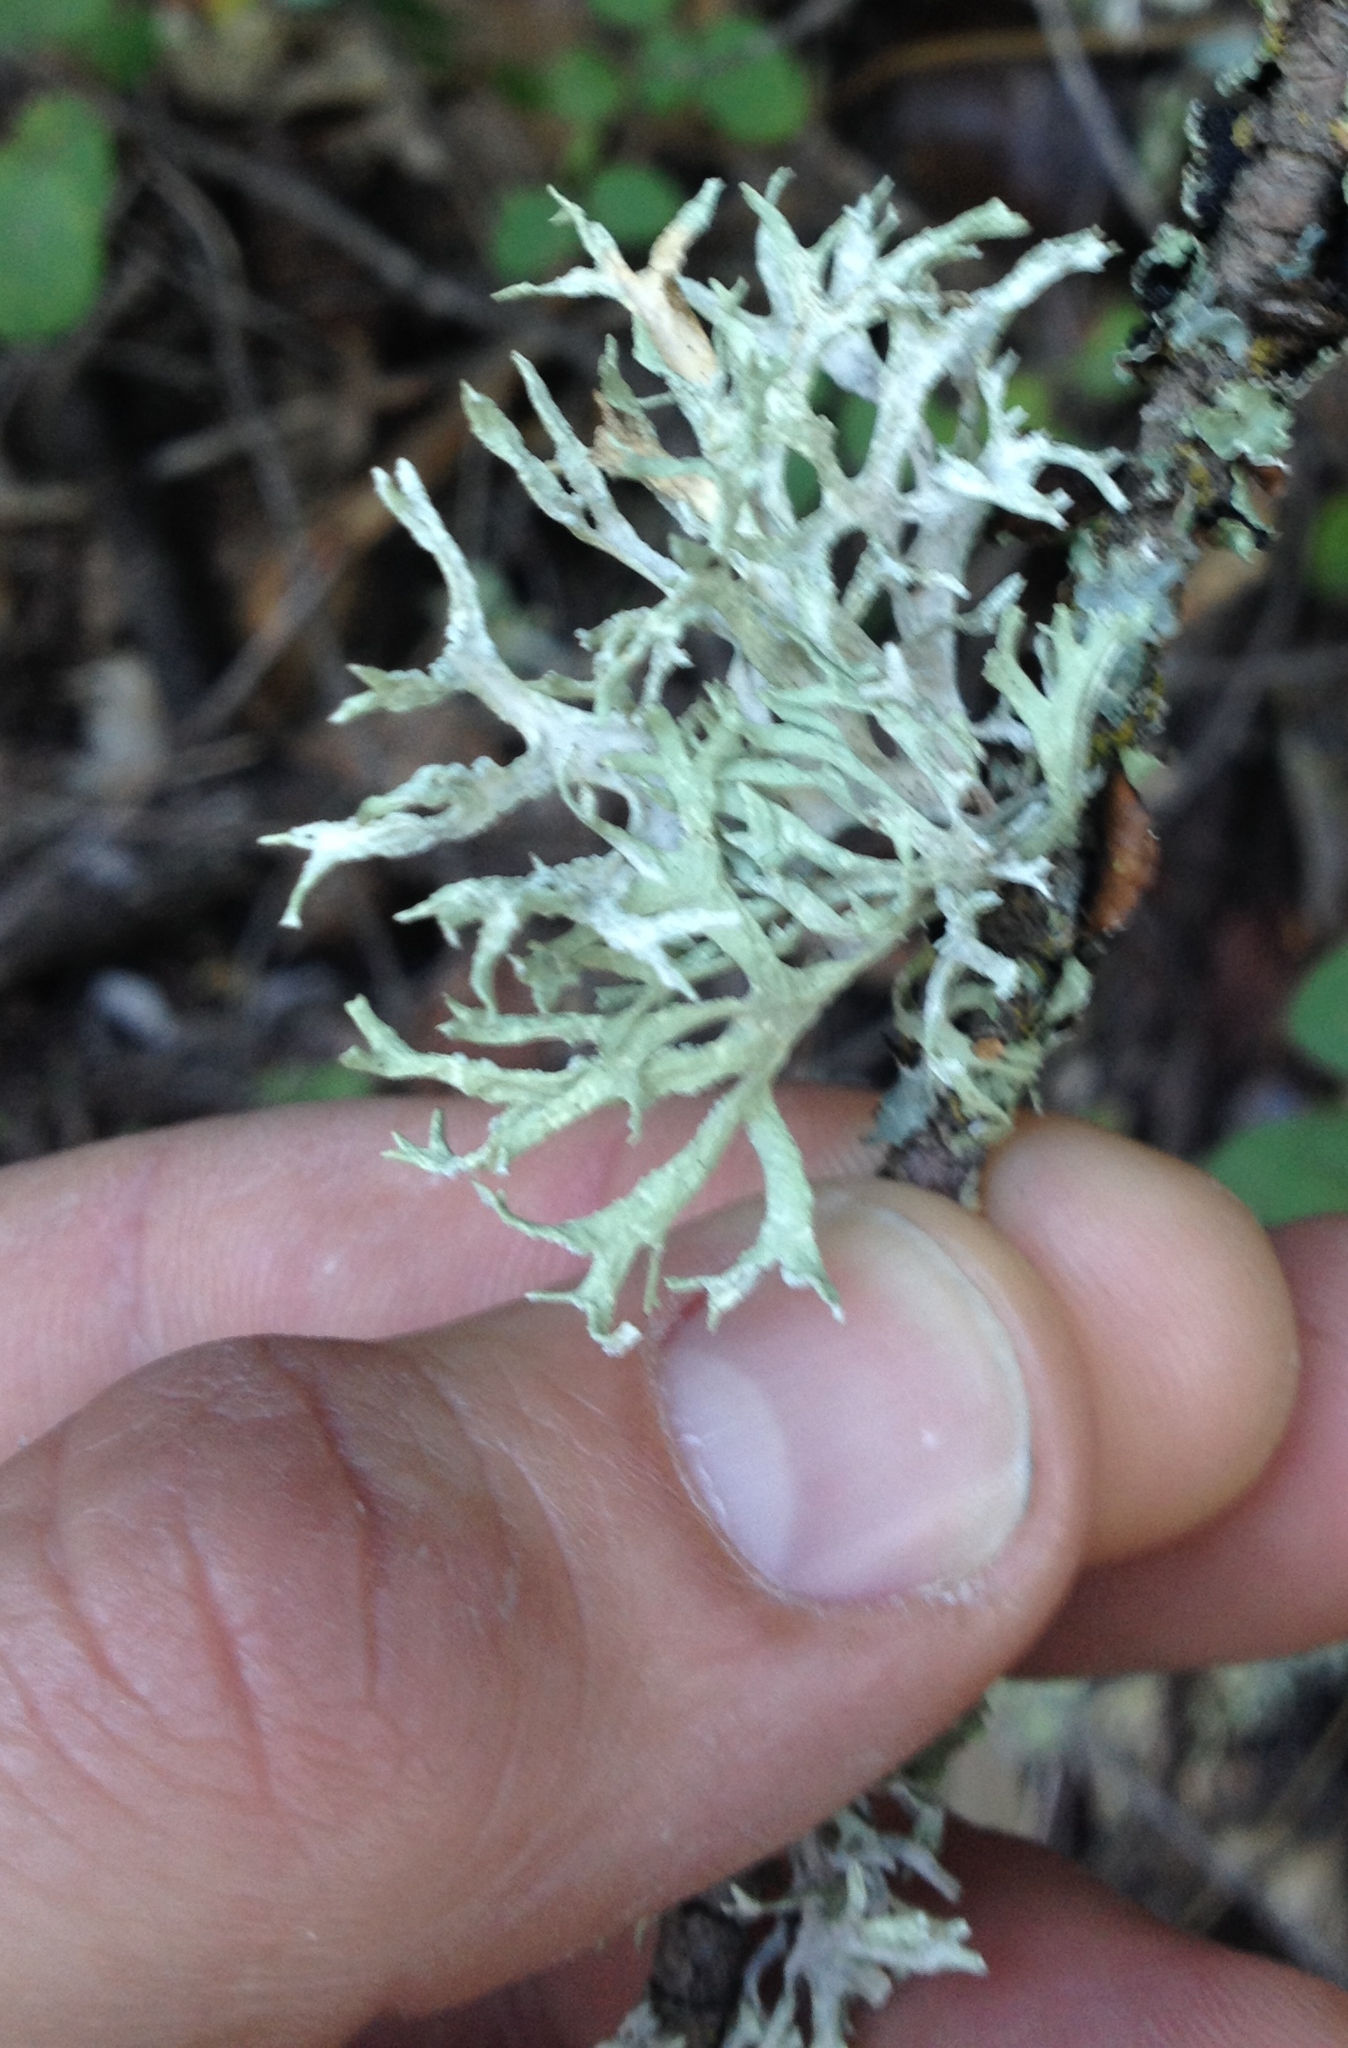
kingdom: Fungi
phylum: Ascomycota
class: Lecanoromycetes
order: Lecanorales
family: Parmeliaceae
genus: Evernia
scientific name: Evernia prunastri
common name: Oak moss
